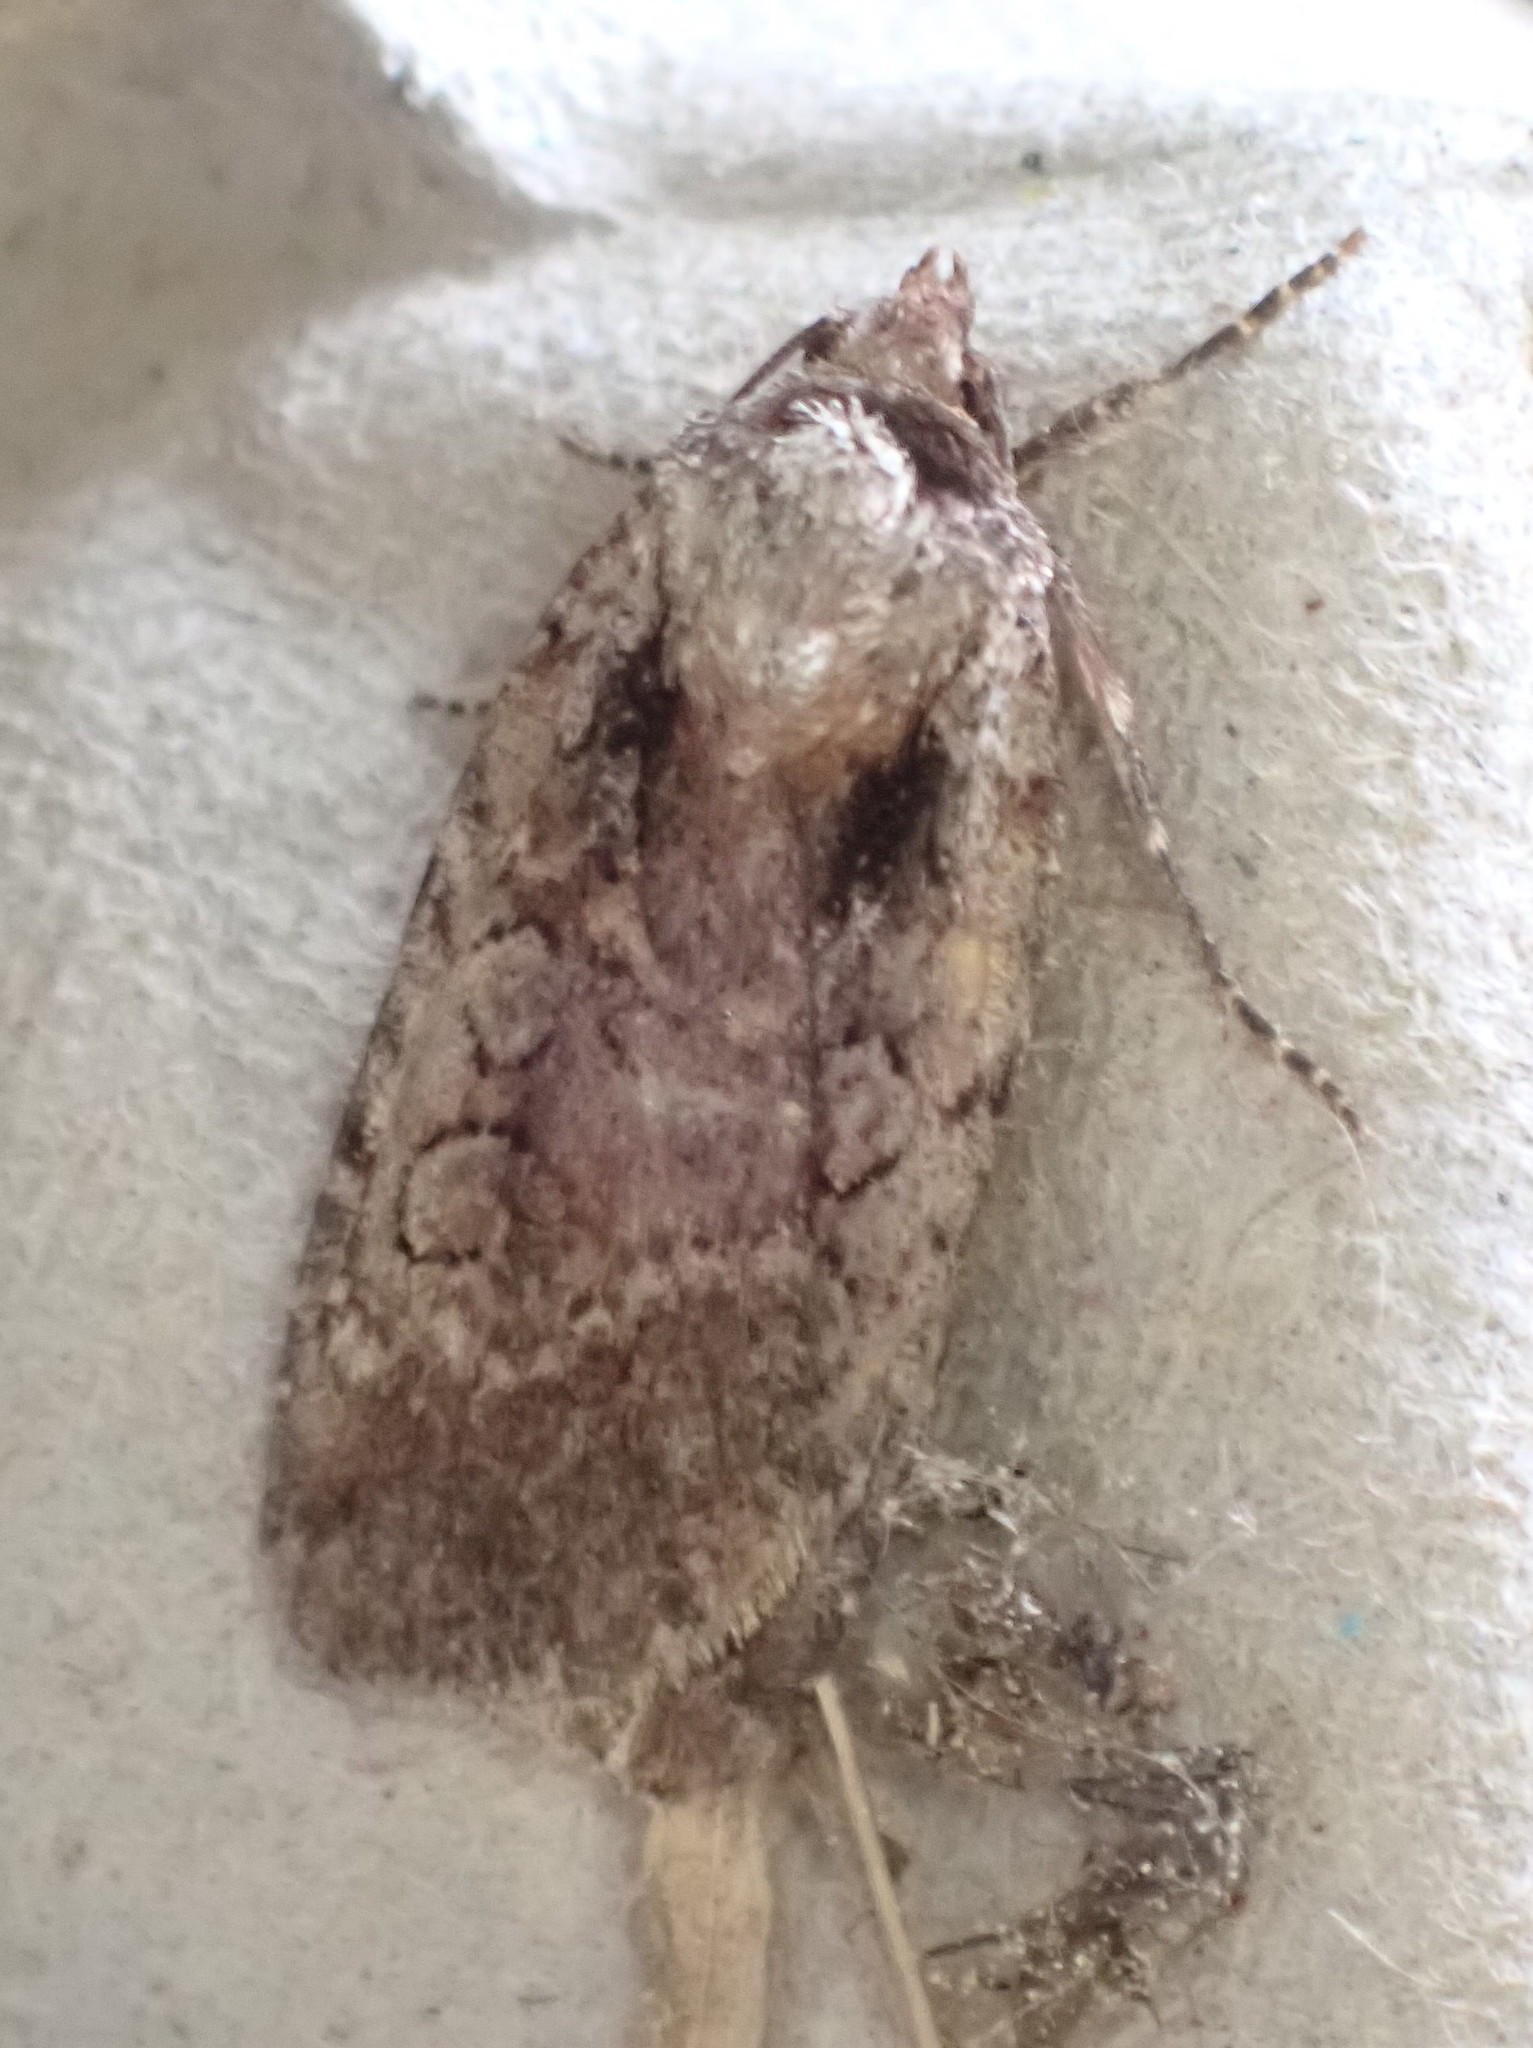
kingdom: Animalia
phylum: Arthropoda
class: Insecta
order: Lepidoptera
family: Noctuidae
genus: Eueretagrotis
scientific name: Eueretagrotis attentus
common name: Attentive dart
